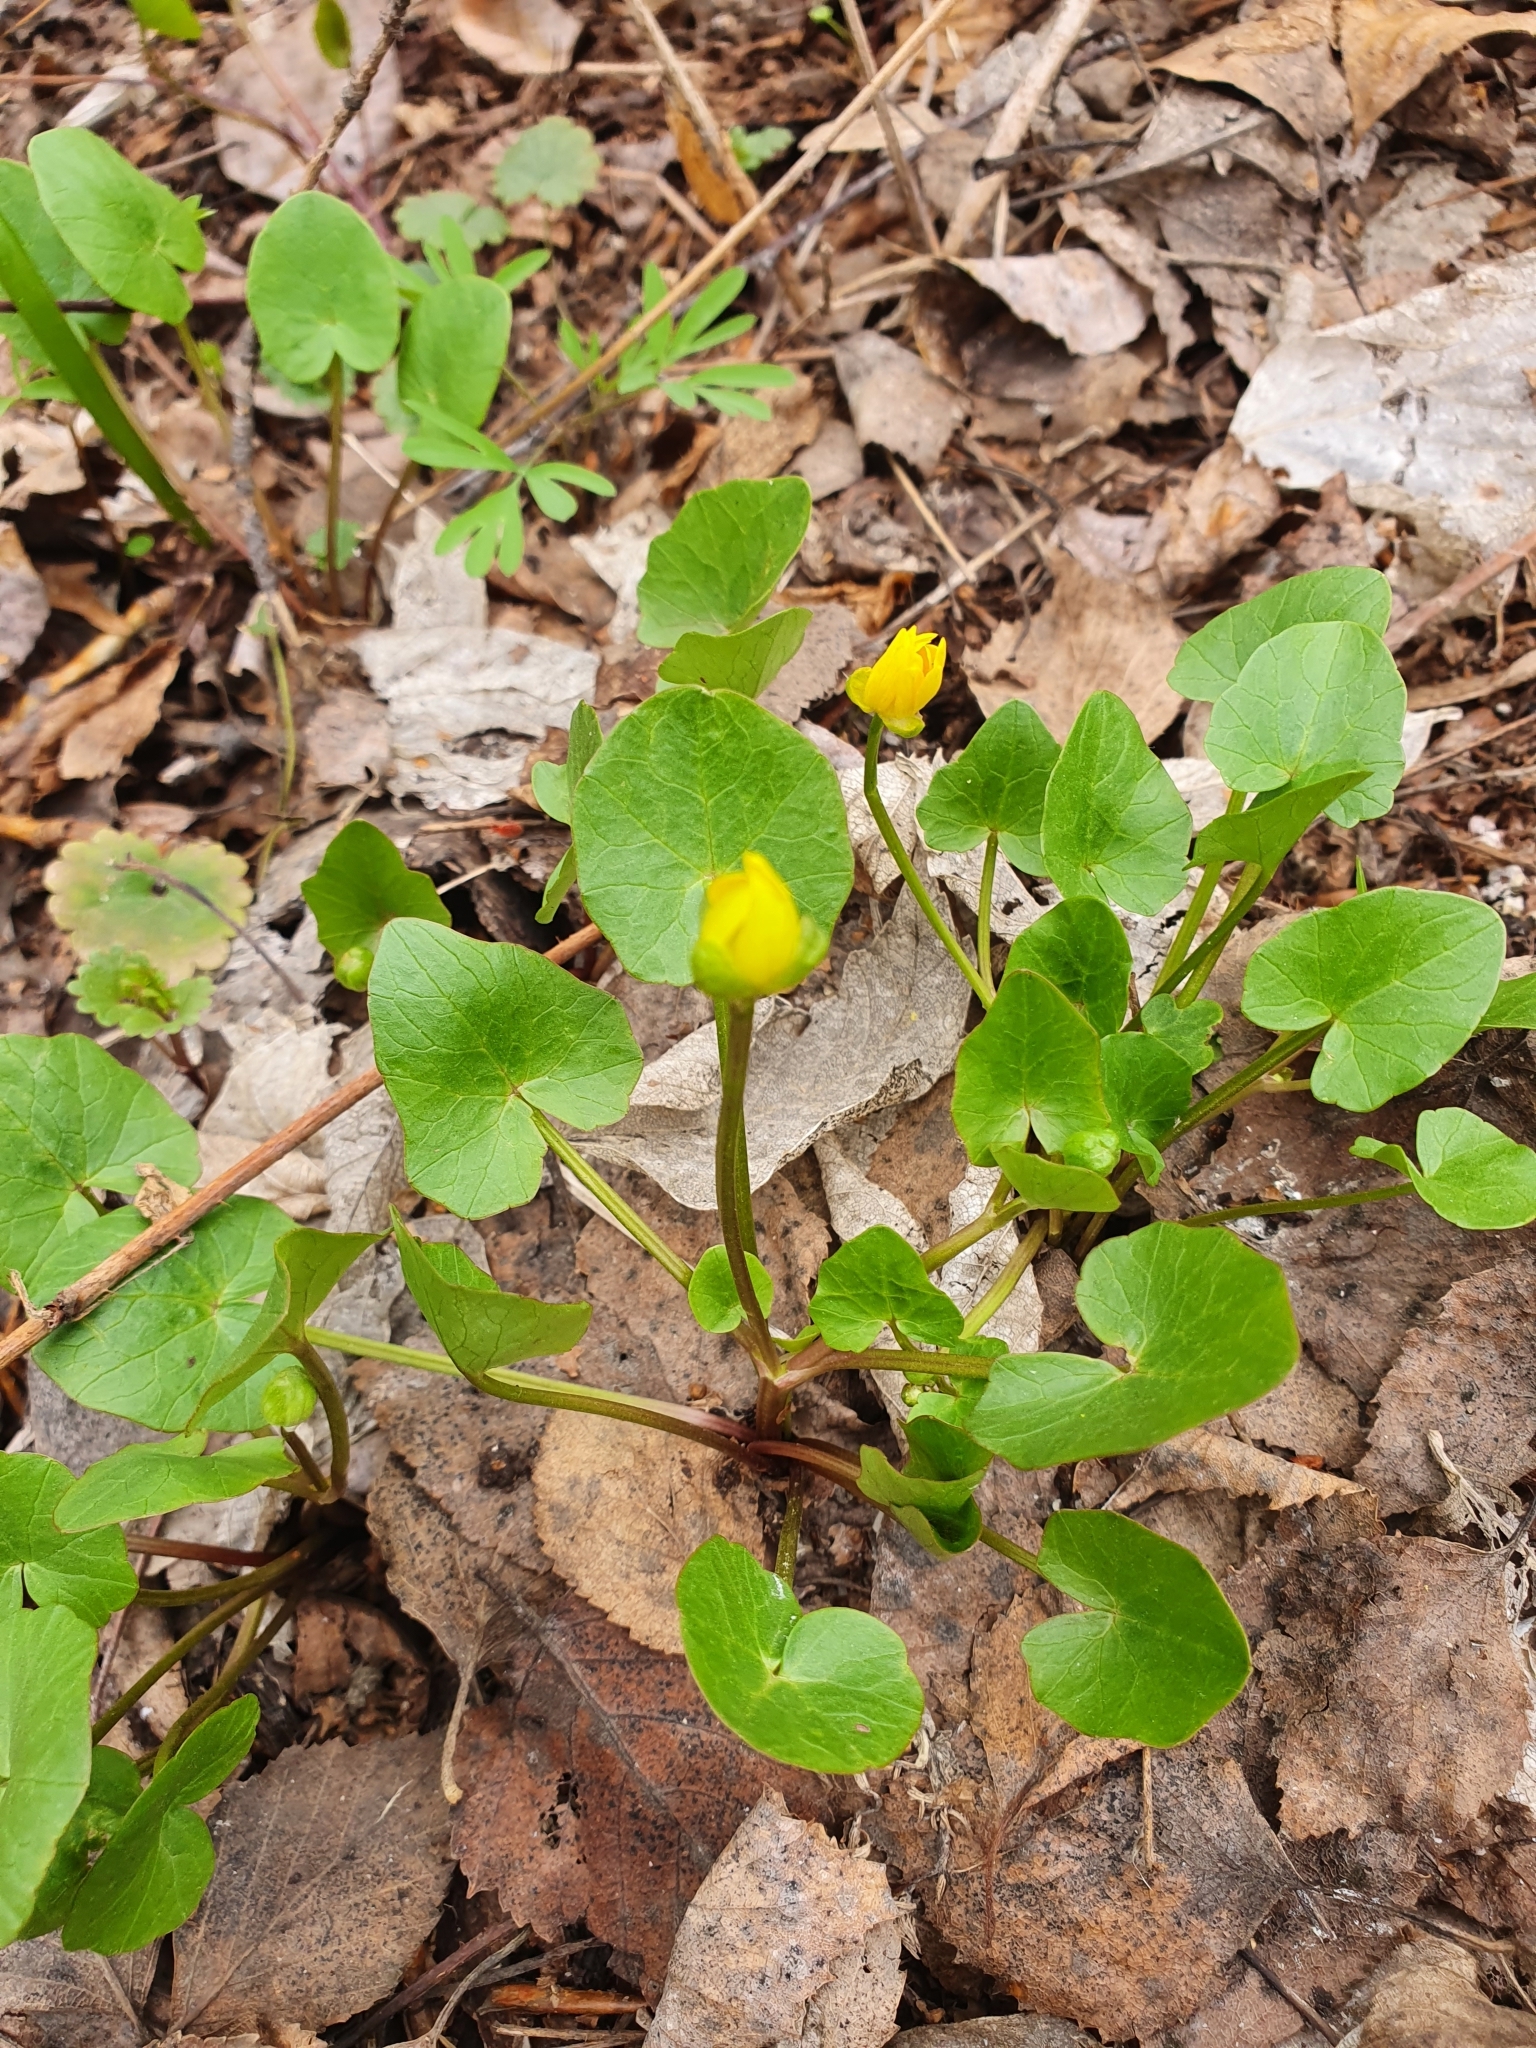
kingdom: Plantae
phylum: Tracheophyta
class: Magnoliopsida
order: Ranunculales
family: Ranunculaceae
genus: Ficaria
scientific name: Ficaria verna
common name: Lesser celandine
